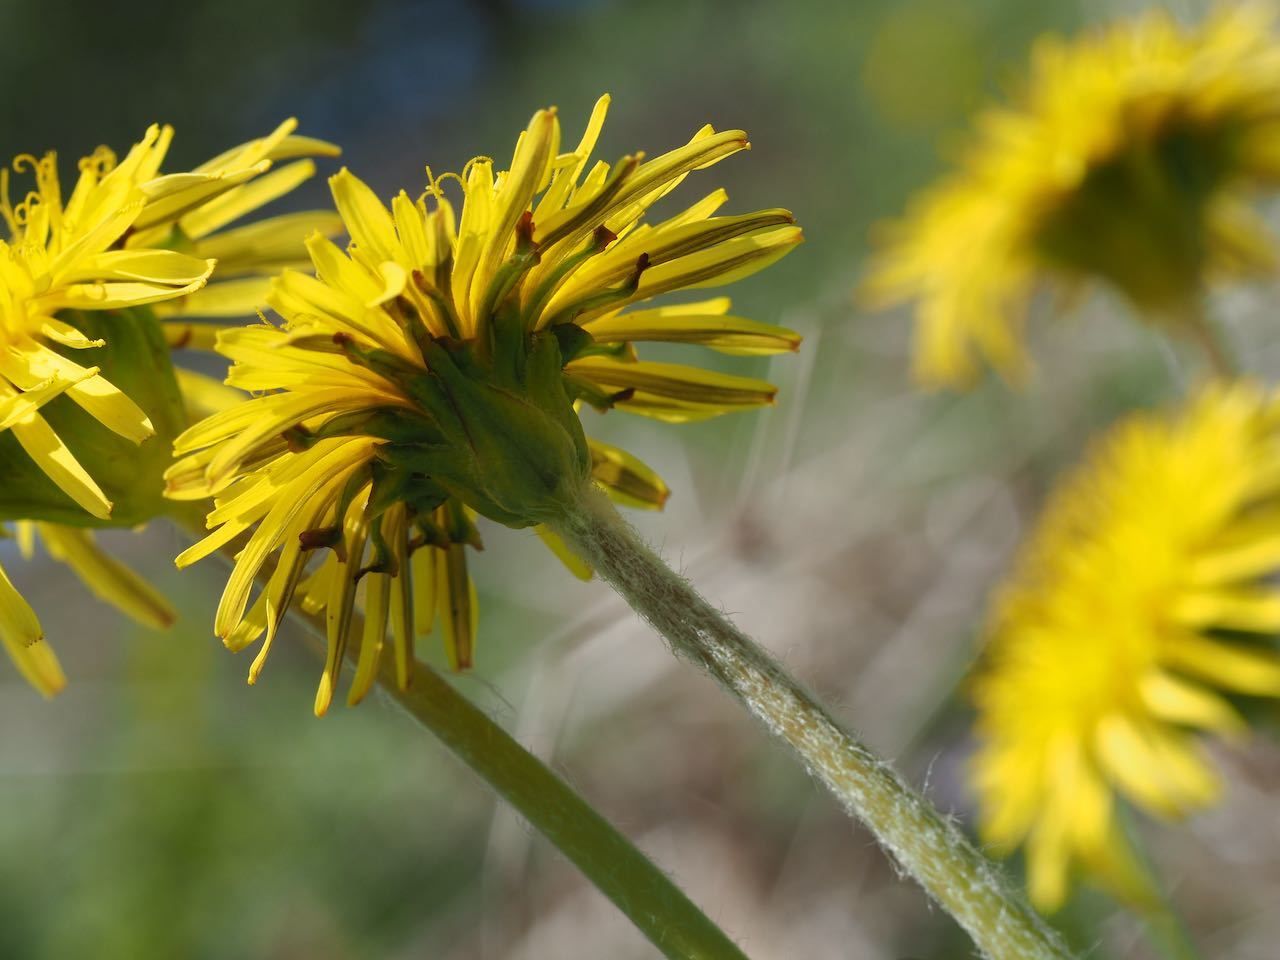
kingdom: Plantae
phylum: Tracheophyta
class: Magnoliopsida
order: Asterales
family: Asteraceae
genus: Taraxacum
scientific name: Taraxacum platycarpum
